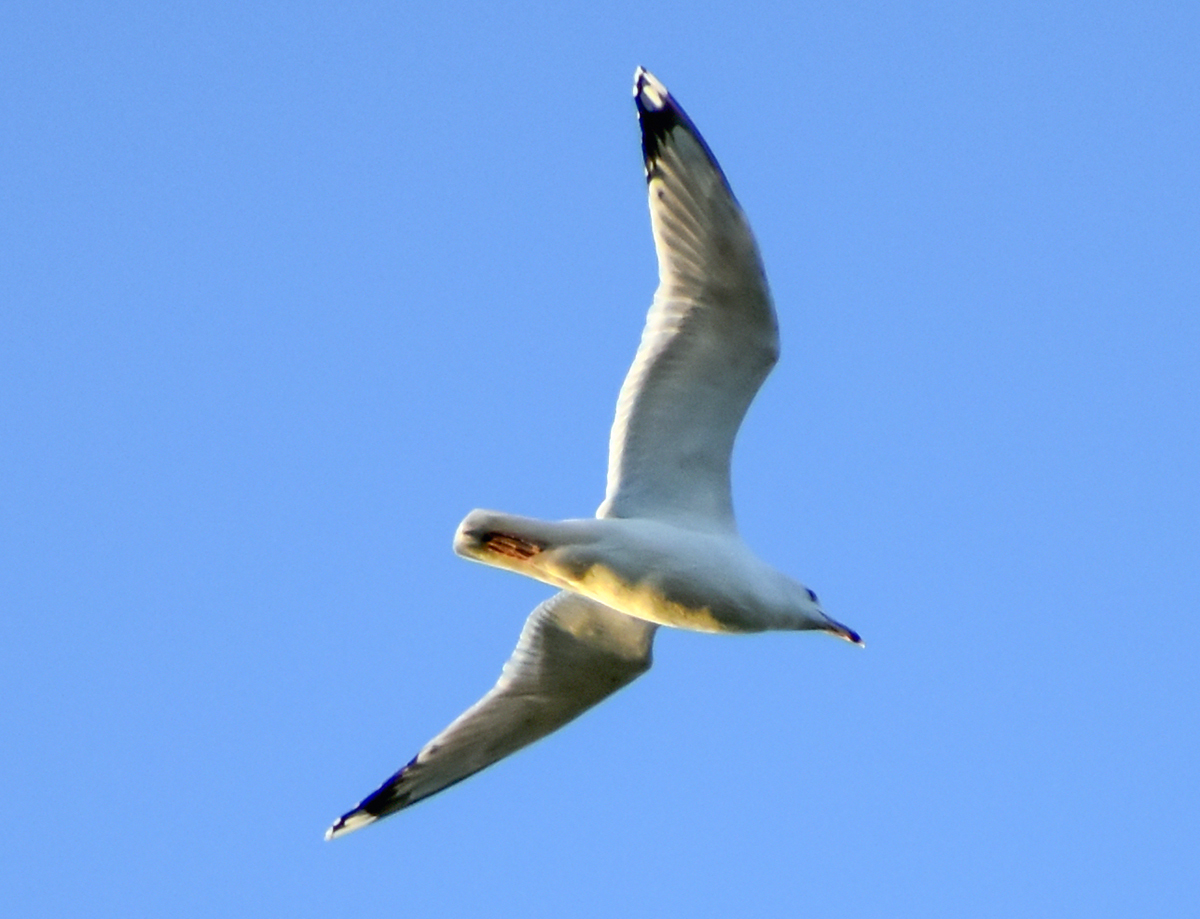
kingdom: Animalia
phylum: Chordata
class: Aves
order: Charadriiformes
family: Laridae
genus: Larus
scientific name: Larus michahellis
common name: Yellow-legged gull
